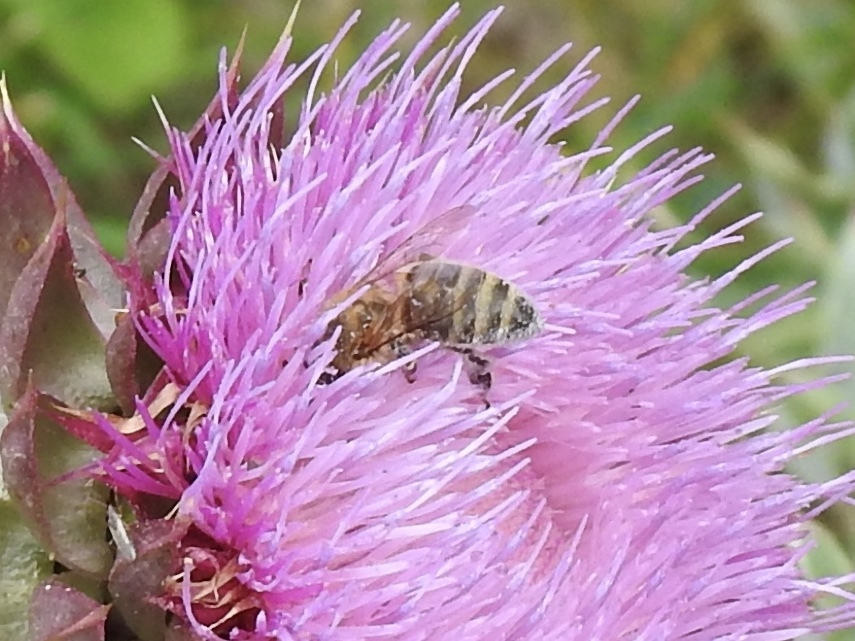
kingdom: Animalia
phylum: Arthropoda
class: Insecta
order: Hymenoptera
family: Apidae
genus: Apis
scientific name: Apis mellifera
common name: Honey bee
